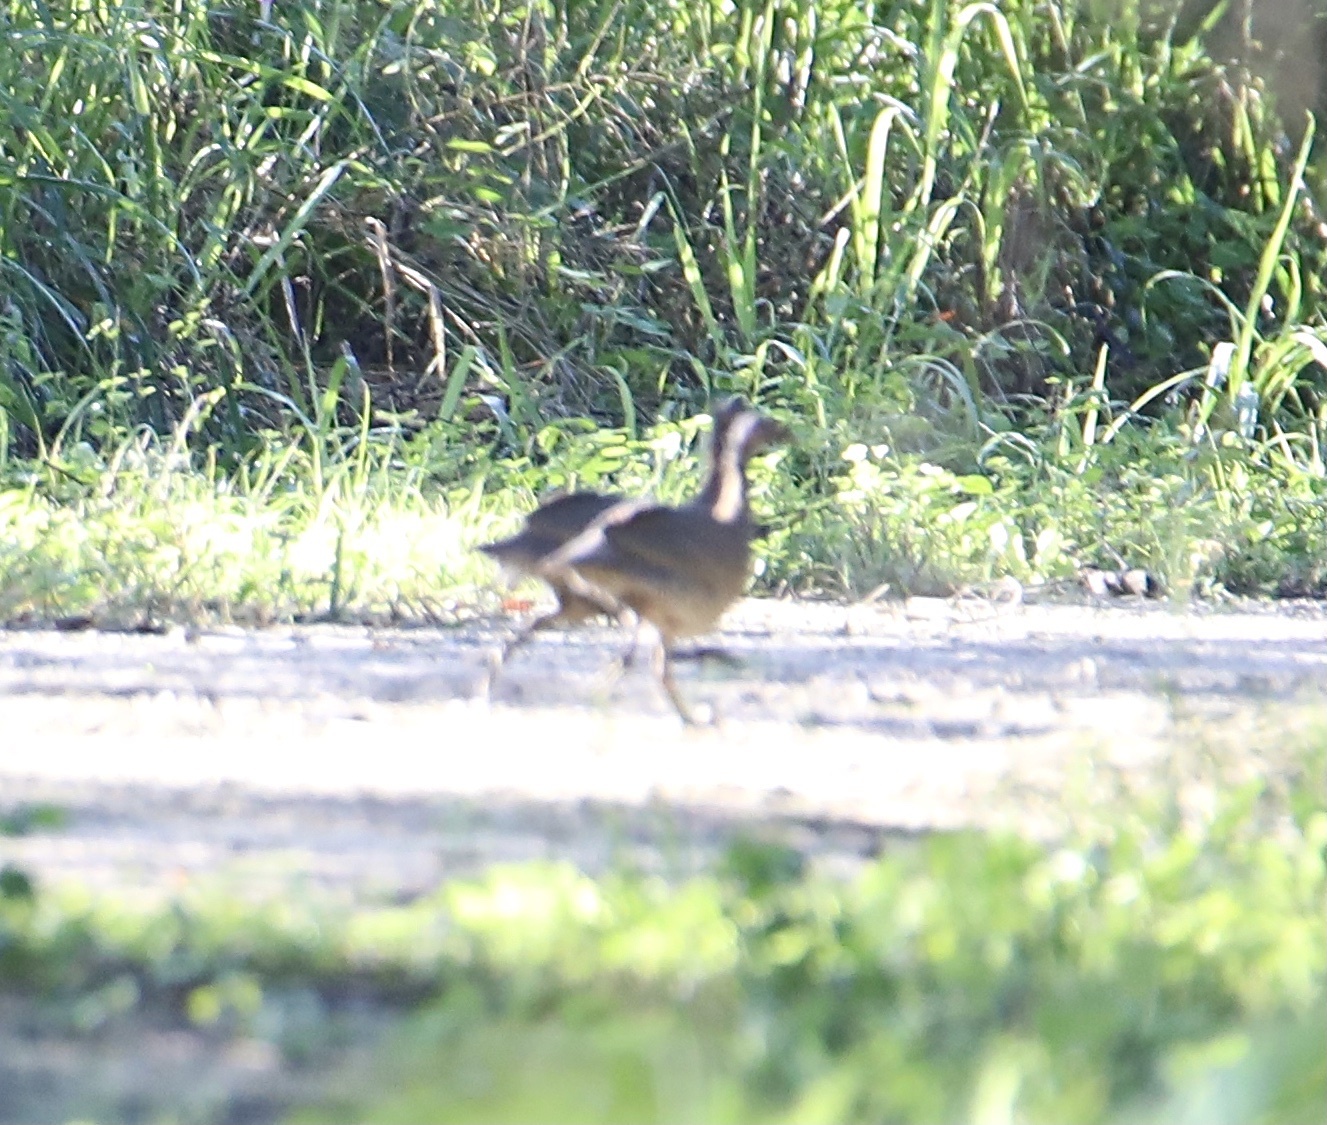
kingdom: Animalia
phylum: Chordata
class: Aves
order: Gruiformes
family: Rallidae
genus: Rallus
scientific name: Rallus crepitans
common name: Clapper rail
